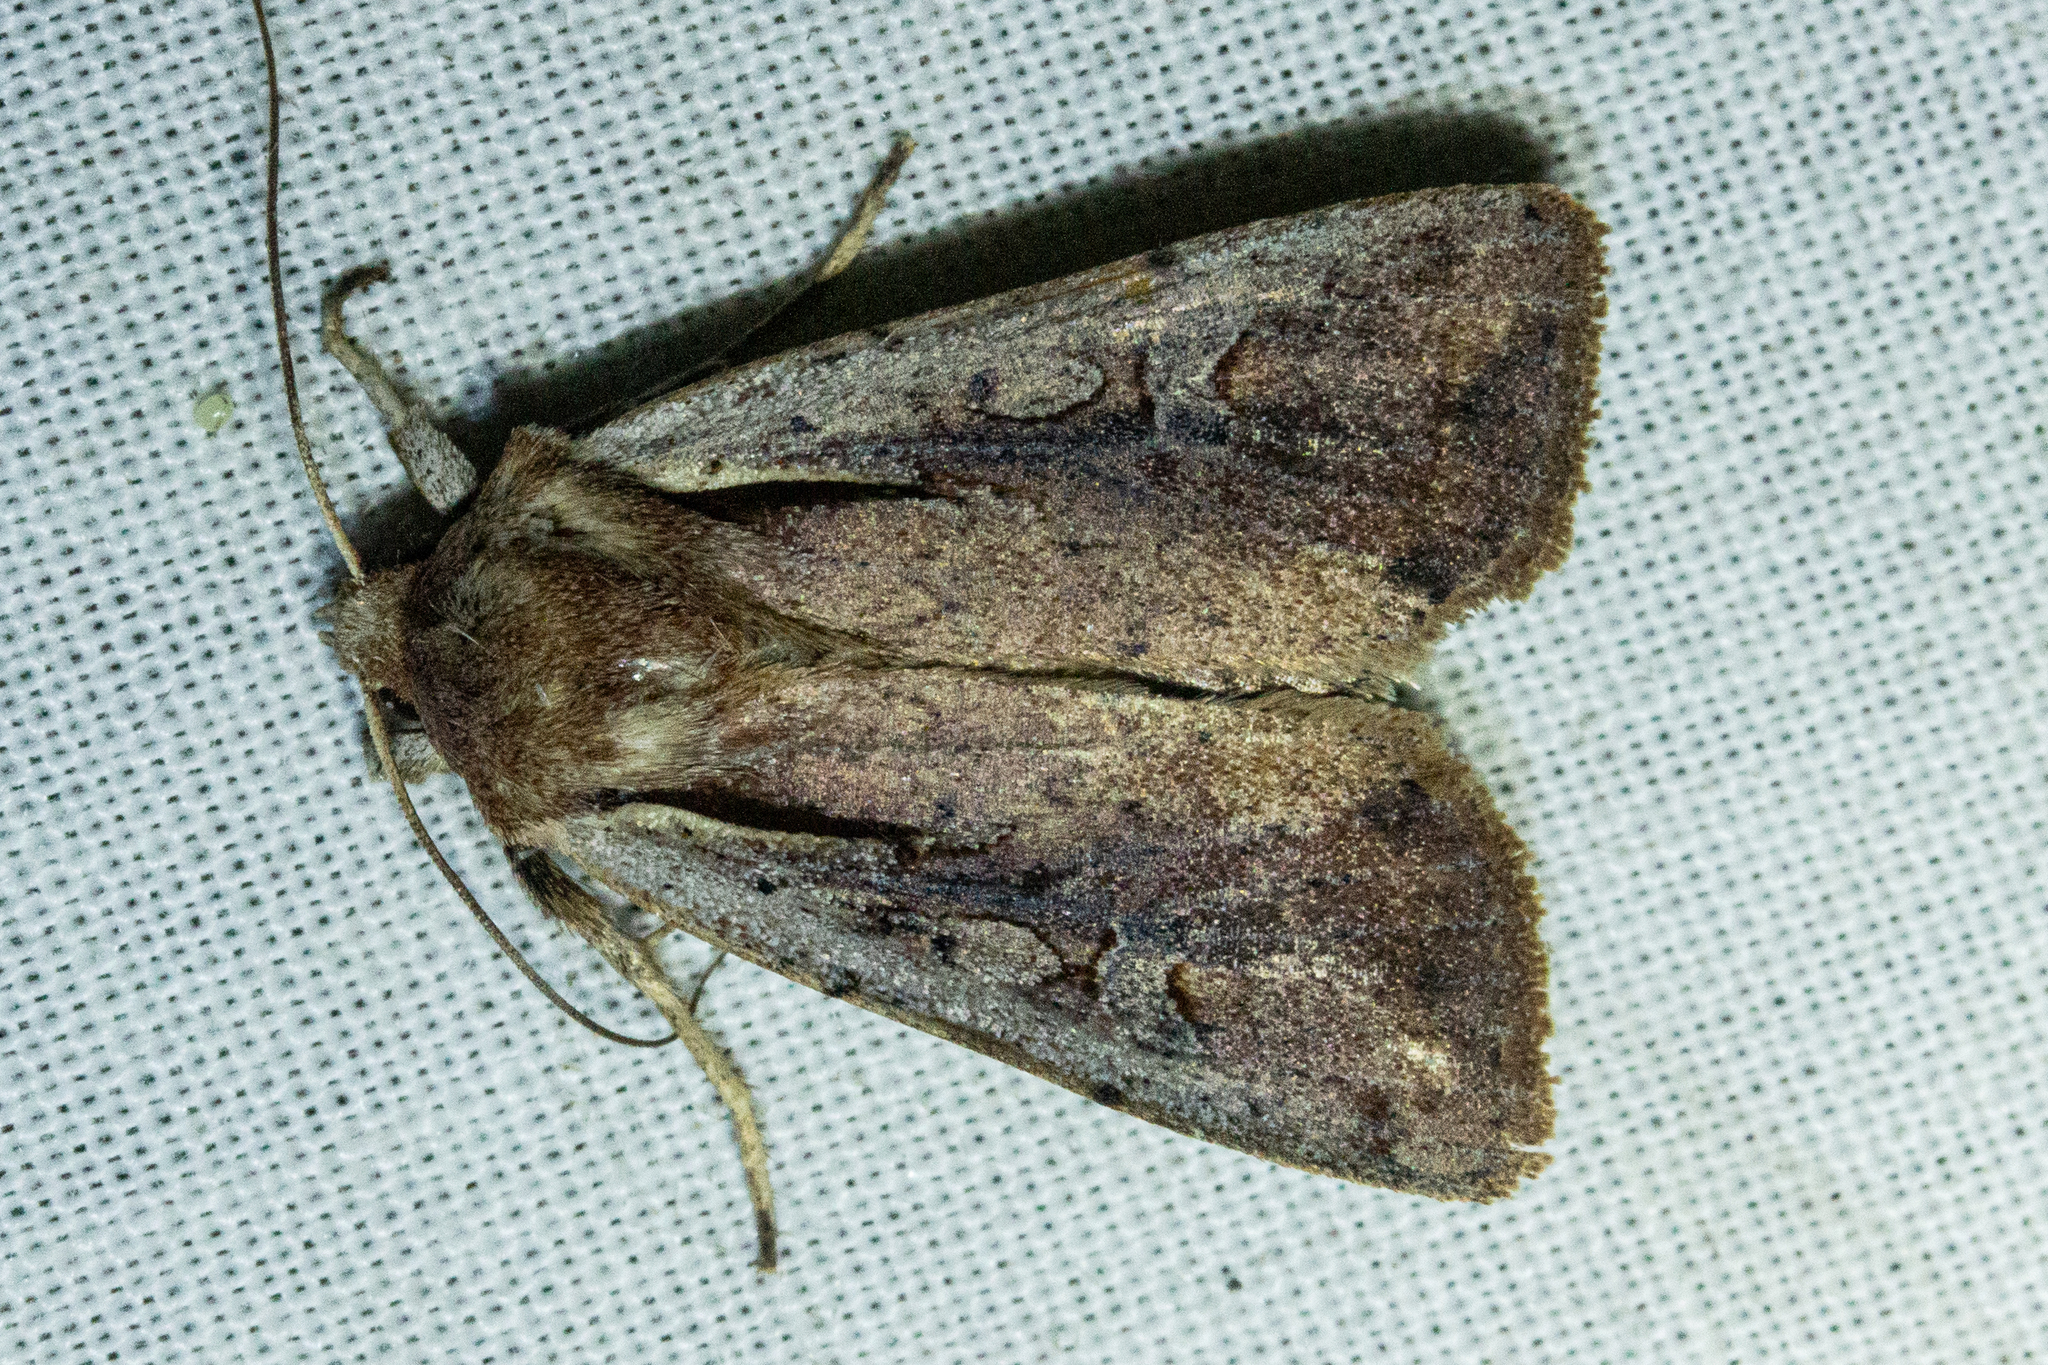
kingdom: Animalia
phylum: Arthropoda
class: Insecta
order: Lepidoptera
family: Noctuidae
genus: Ichneutica
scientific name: Ichneutica atristriga
